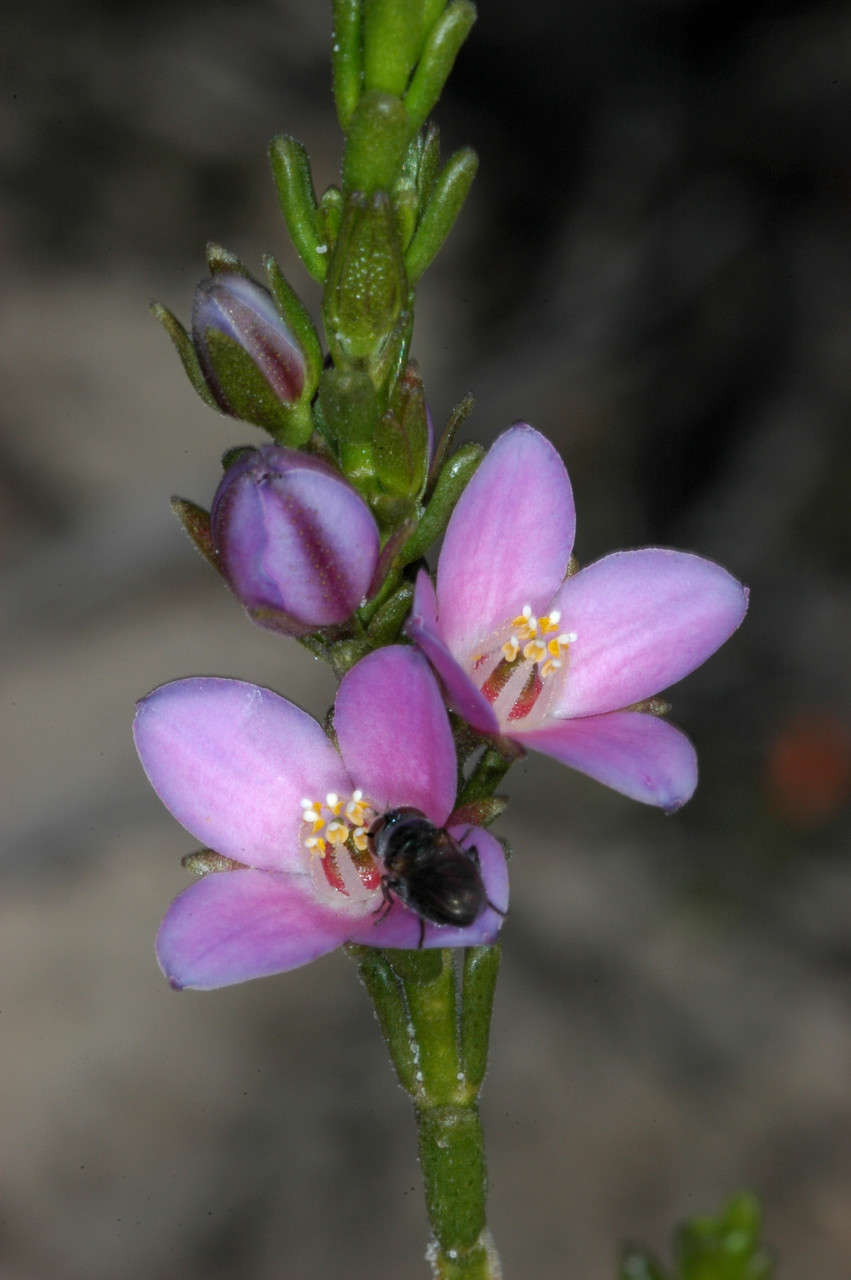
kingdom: Plantae
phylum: Tracheophyta
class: Magnoliopsida
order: Sapindales
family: Rutaceae
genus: Cyanothamnus
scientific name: Cyanothamnus coerulescens
